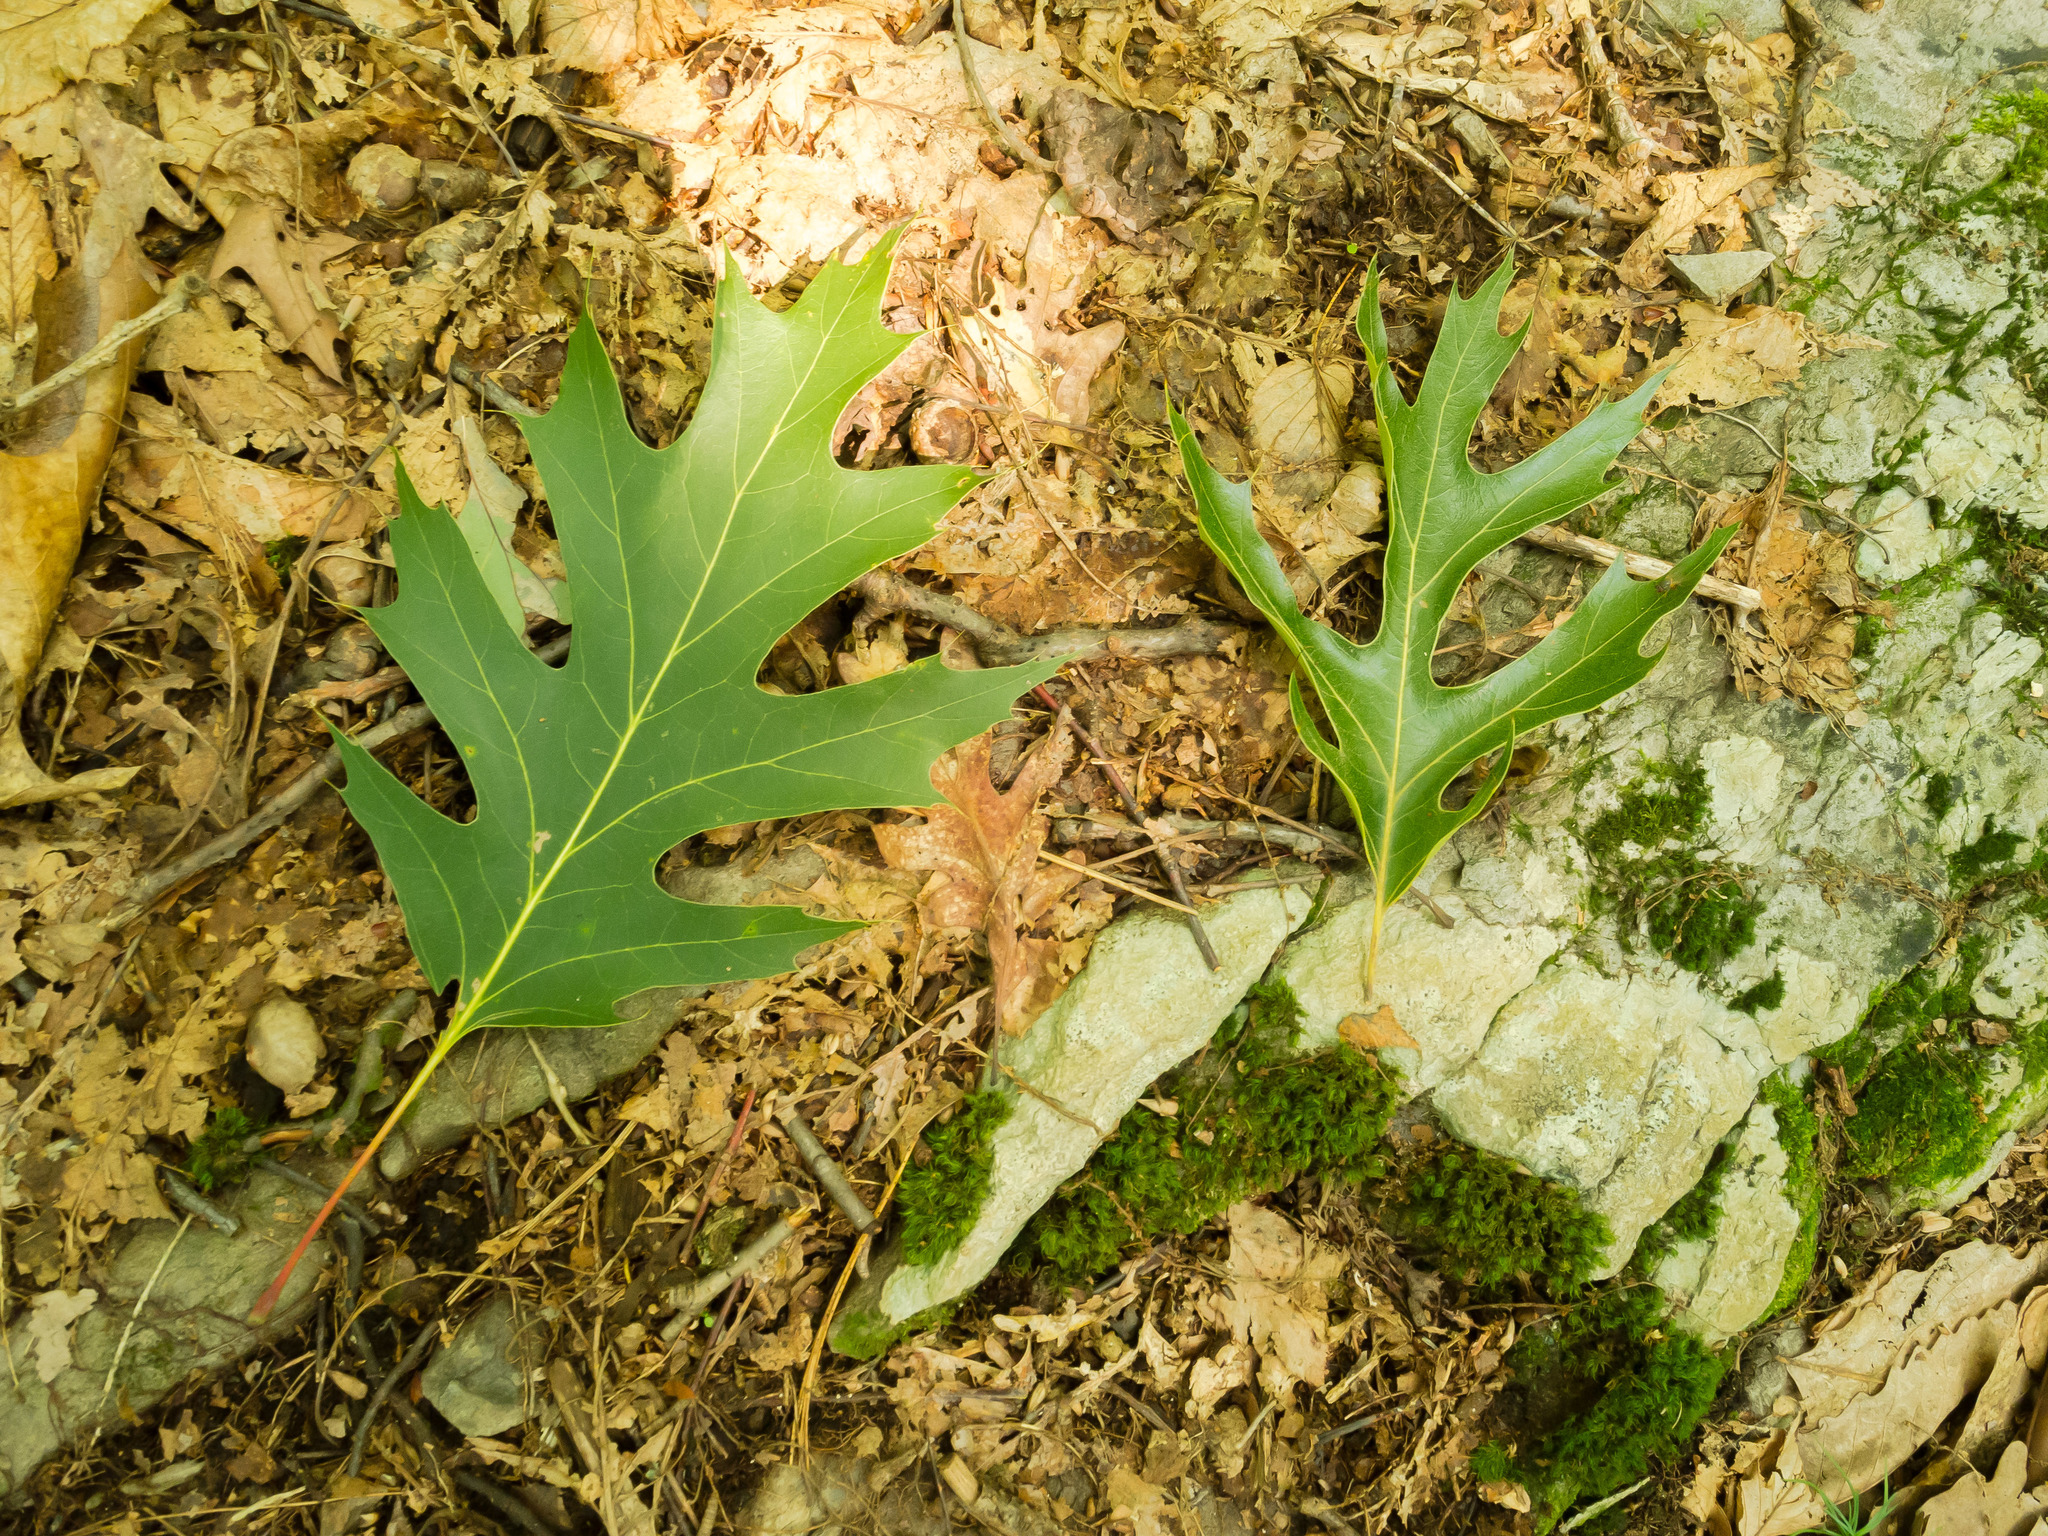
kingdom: Plantae
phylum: Tracheophyta
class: Magnoliopsida
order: Fagales
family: Fagaceae
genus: Quercus
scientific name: Quercus coccinea
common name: Scarlet oak
